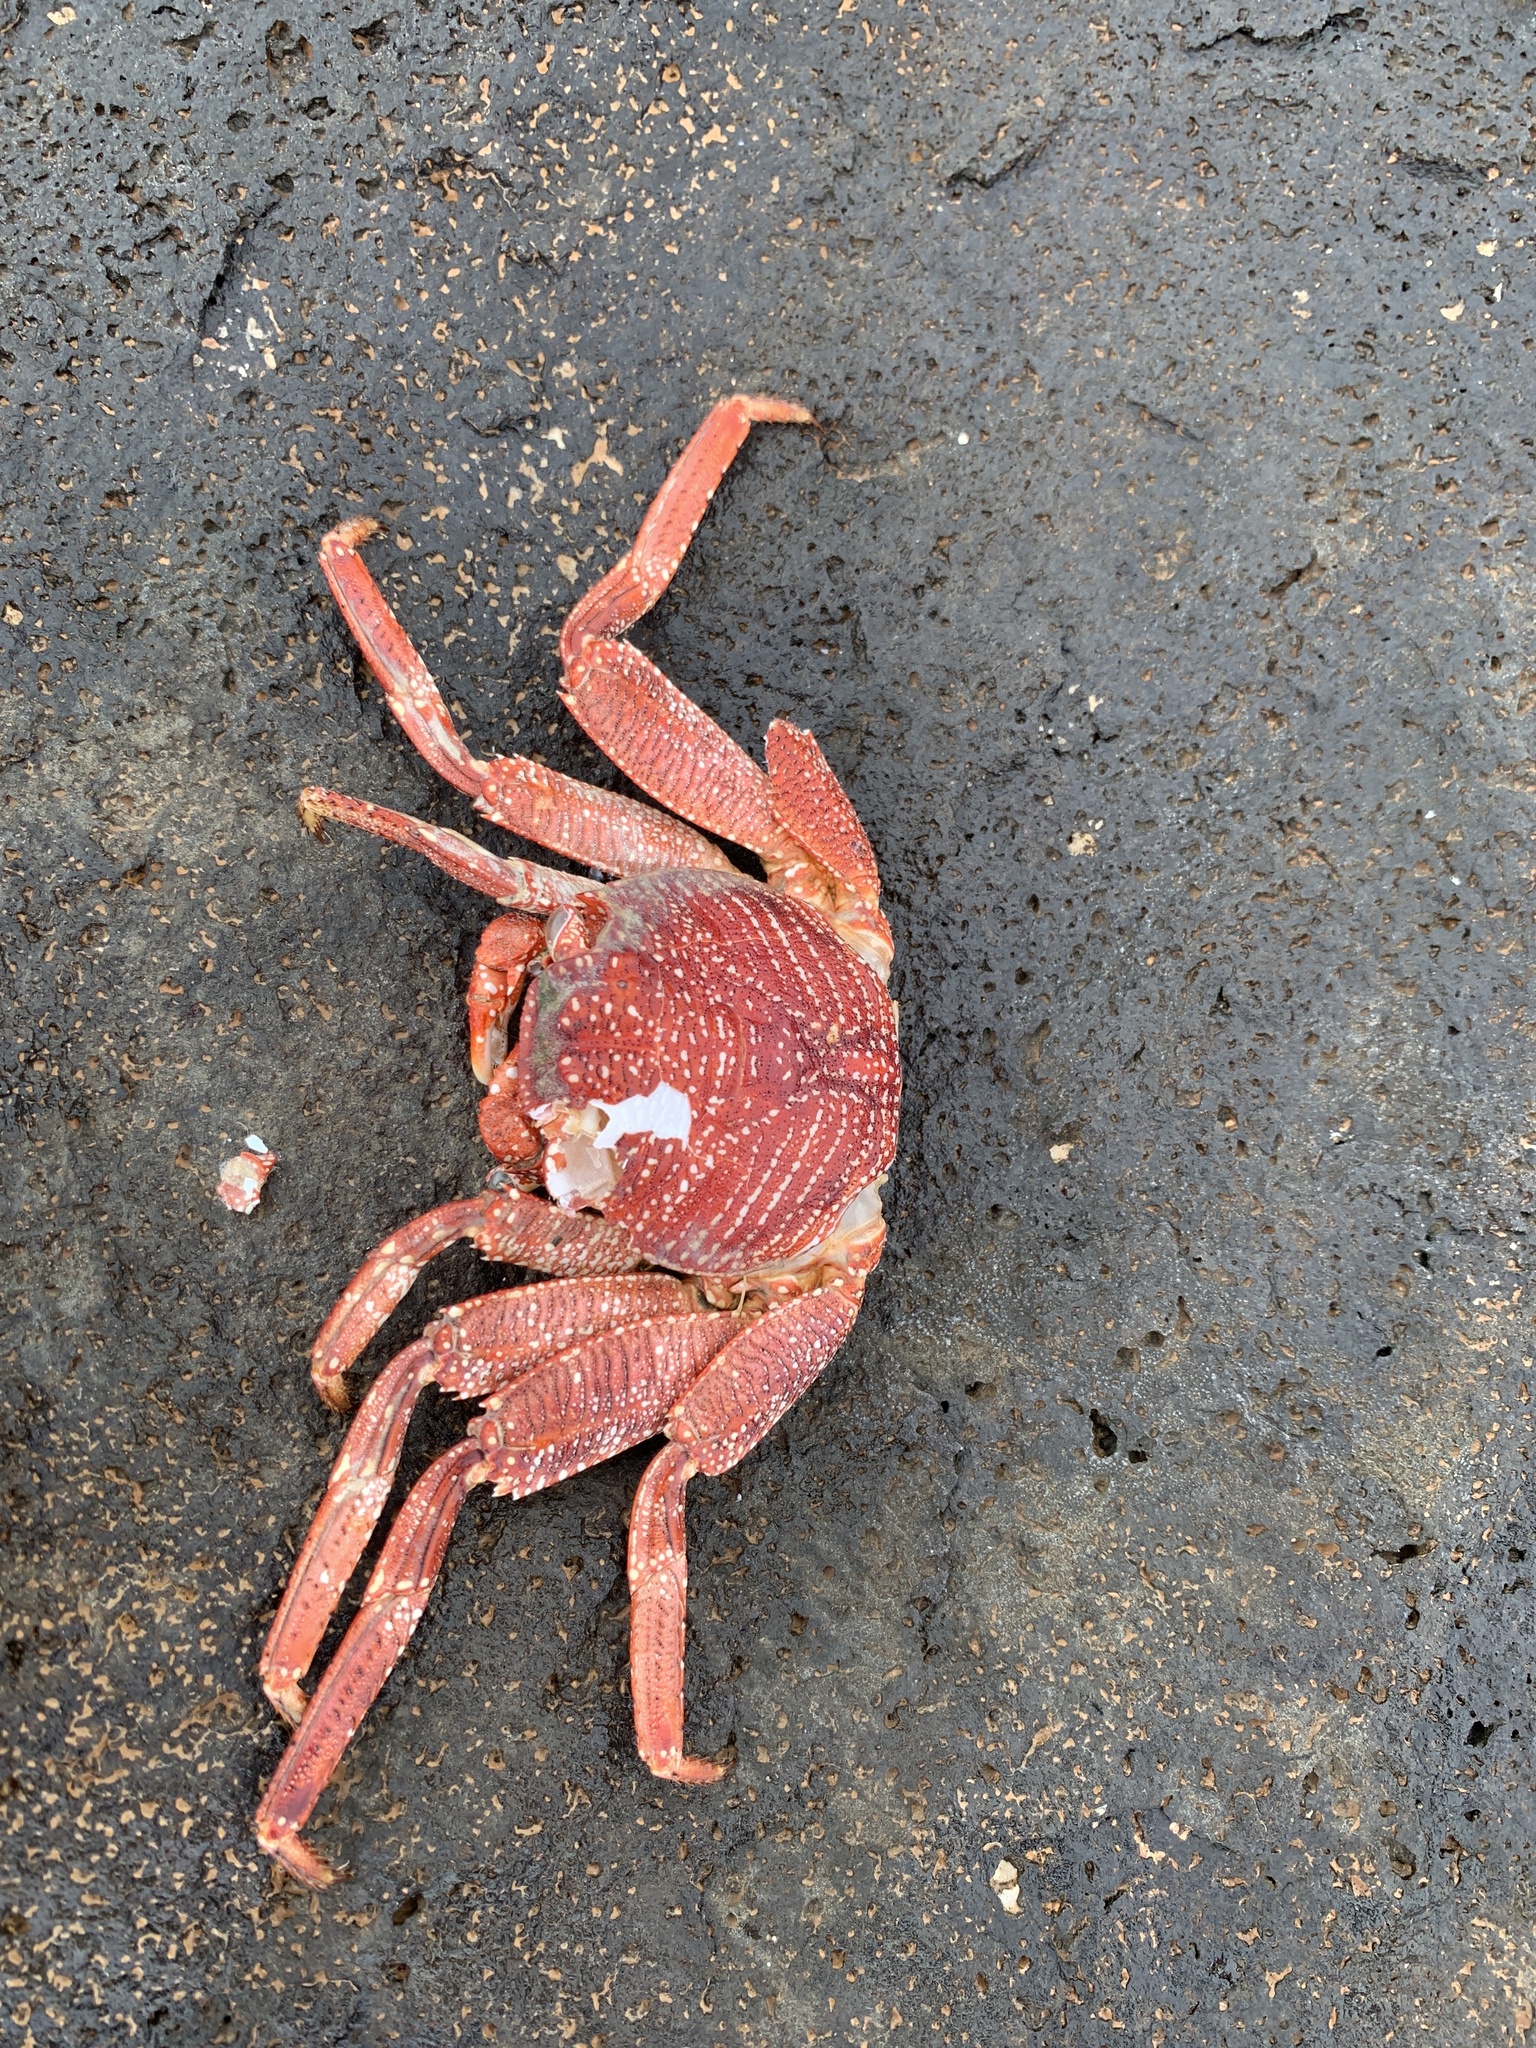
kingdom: Animalia
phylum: Arthropoda
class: Malacostraca
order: Decapoda
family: Grapsidae
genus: Grapsus
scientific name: Grapsus tenuicrustatus
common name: Natal lightfoot crab
